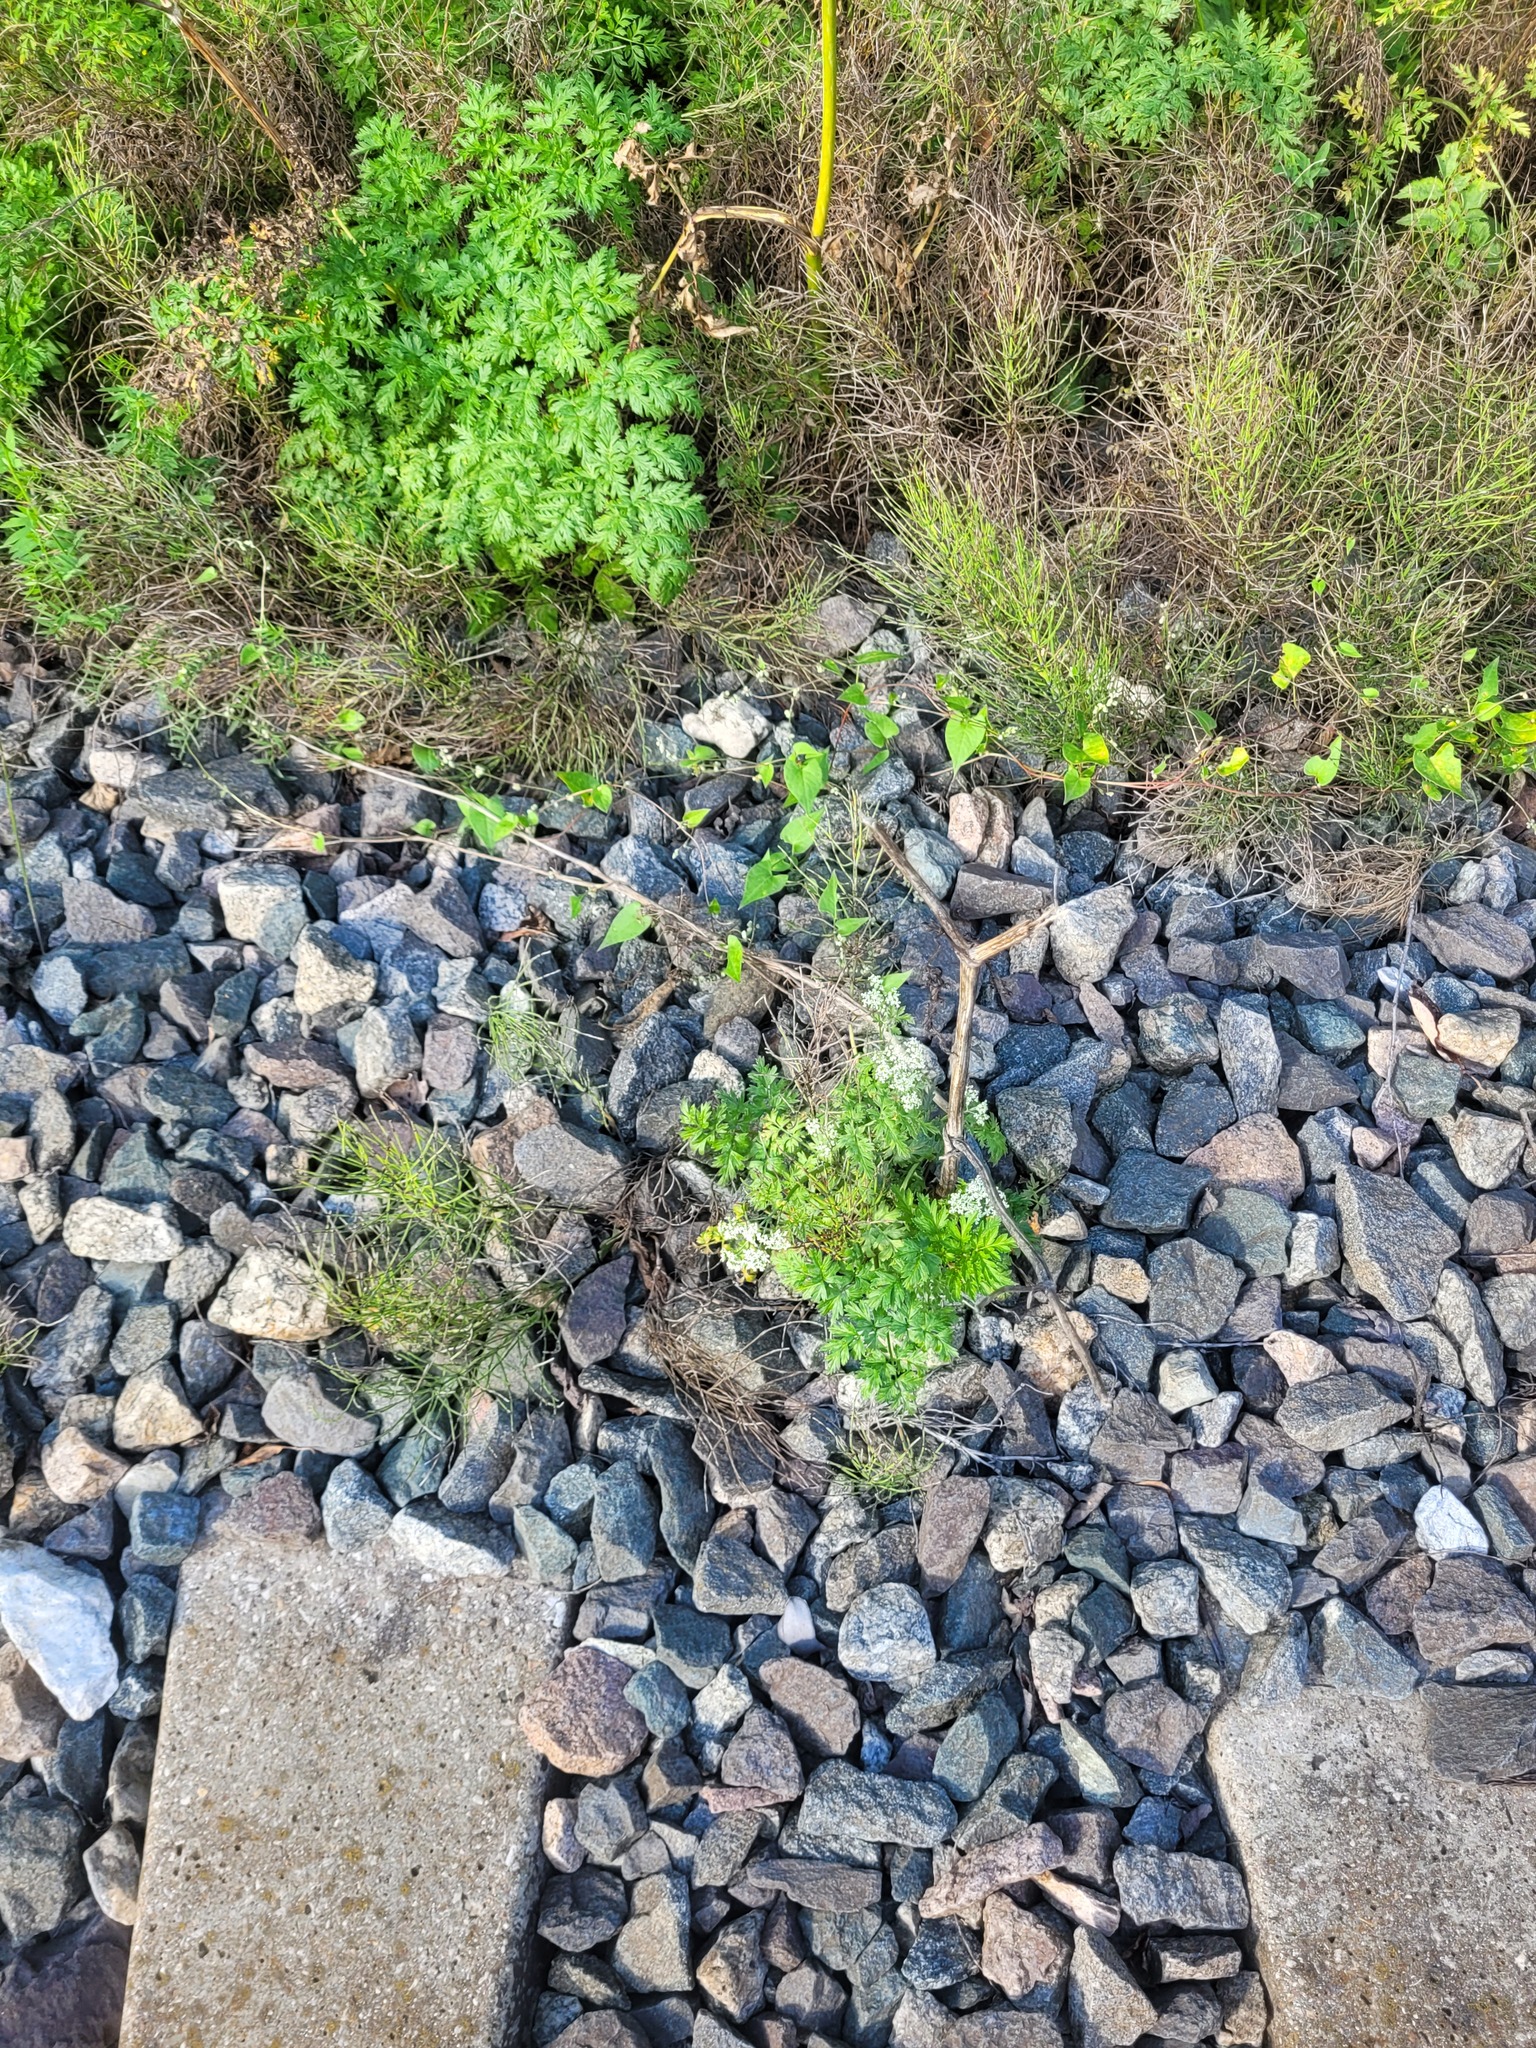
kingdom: Plantae
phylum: Tracheophyta
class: Magnoliopsida
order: Apiales
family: Apiaceae
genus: Anthriscus
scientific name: Anthriscus sylvestris
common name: Cow parsley
